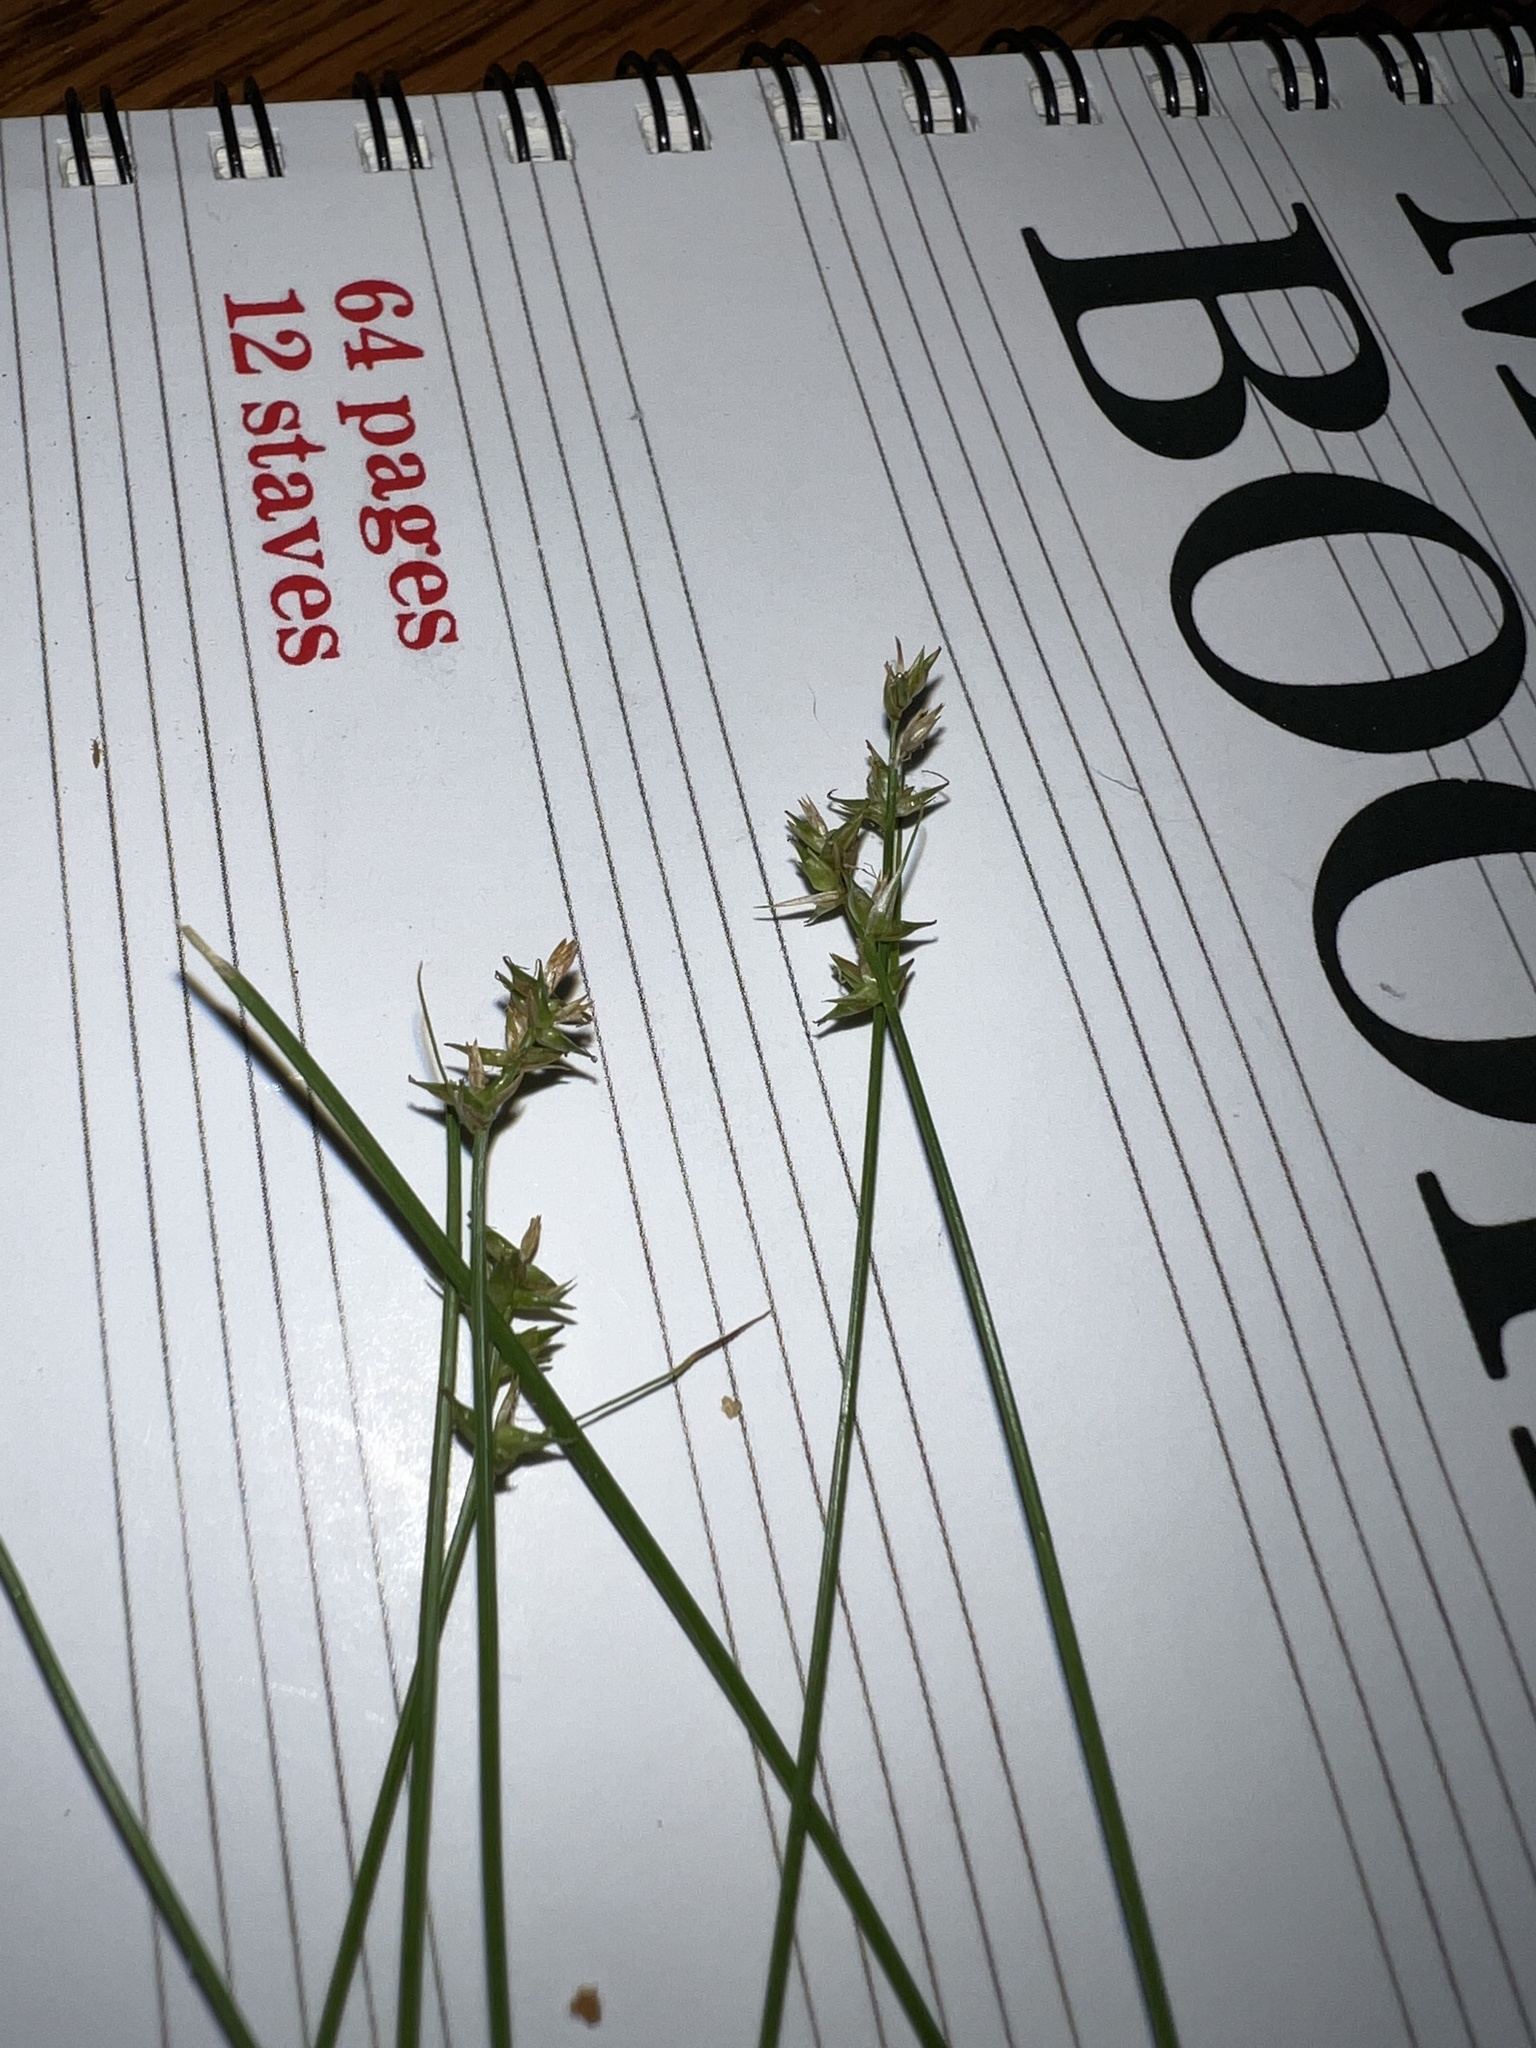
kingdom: Plantae
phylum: Tracheophyta
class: Liliopsida
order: Poales
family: Cyperaceae
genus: Carex
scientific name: Carex texensis
